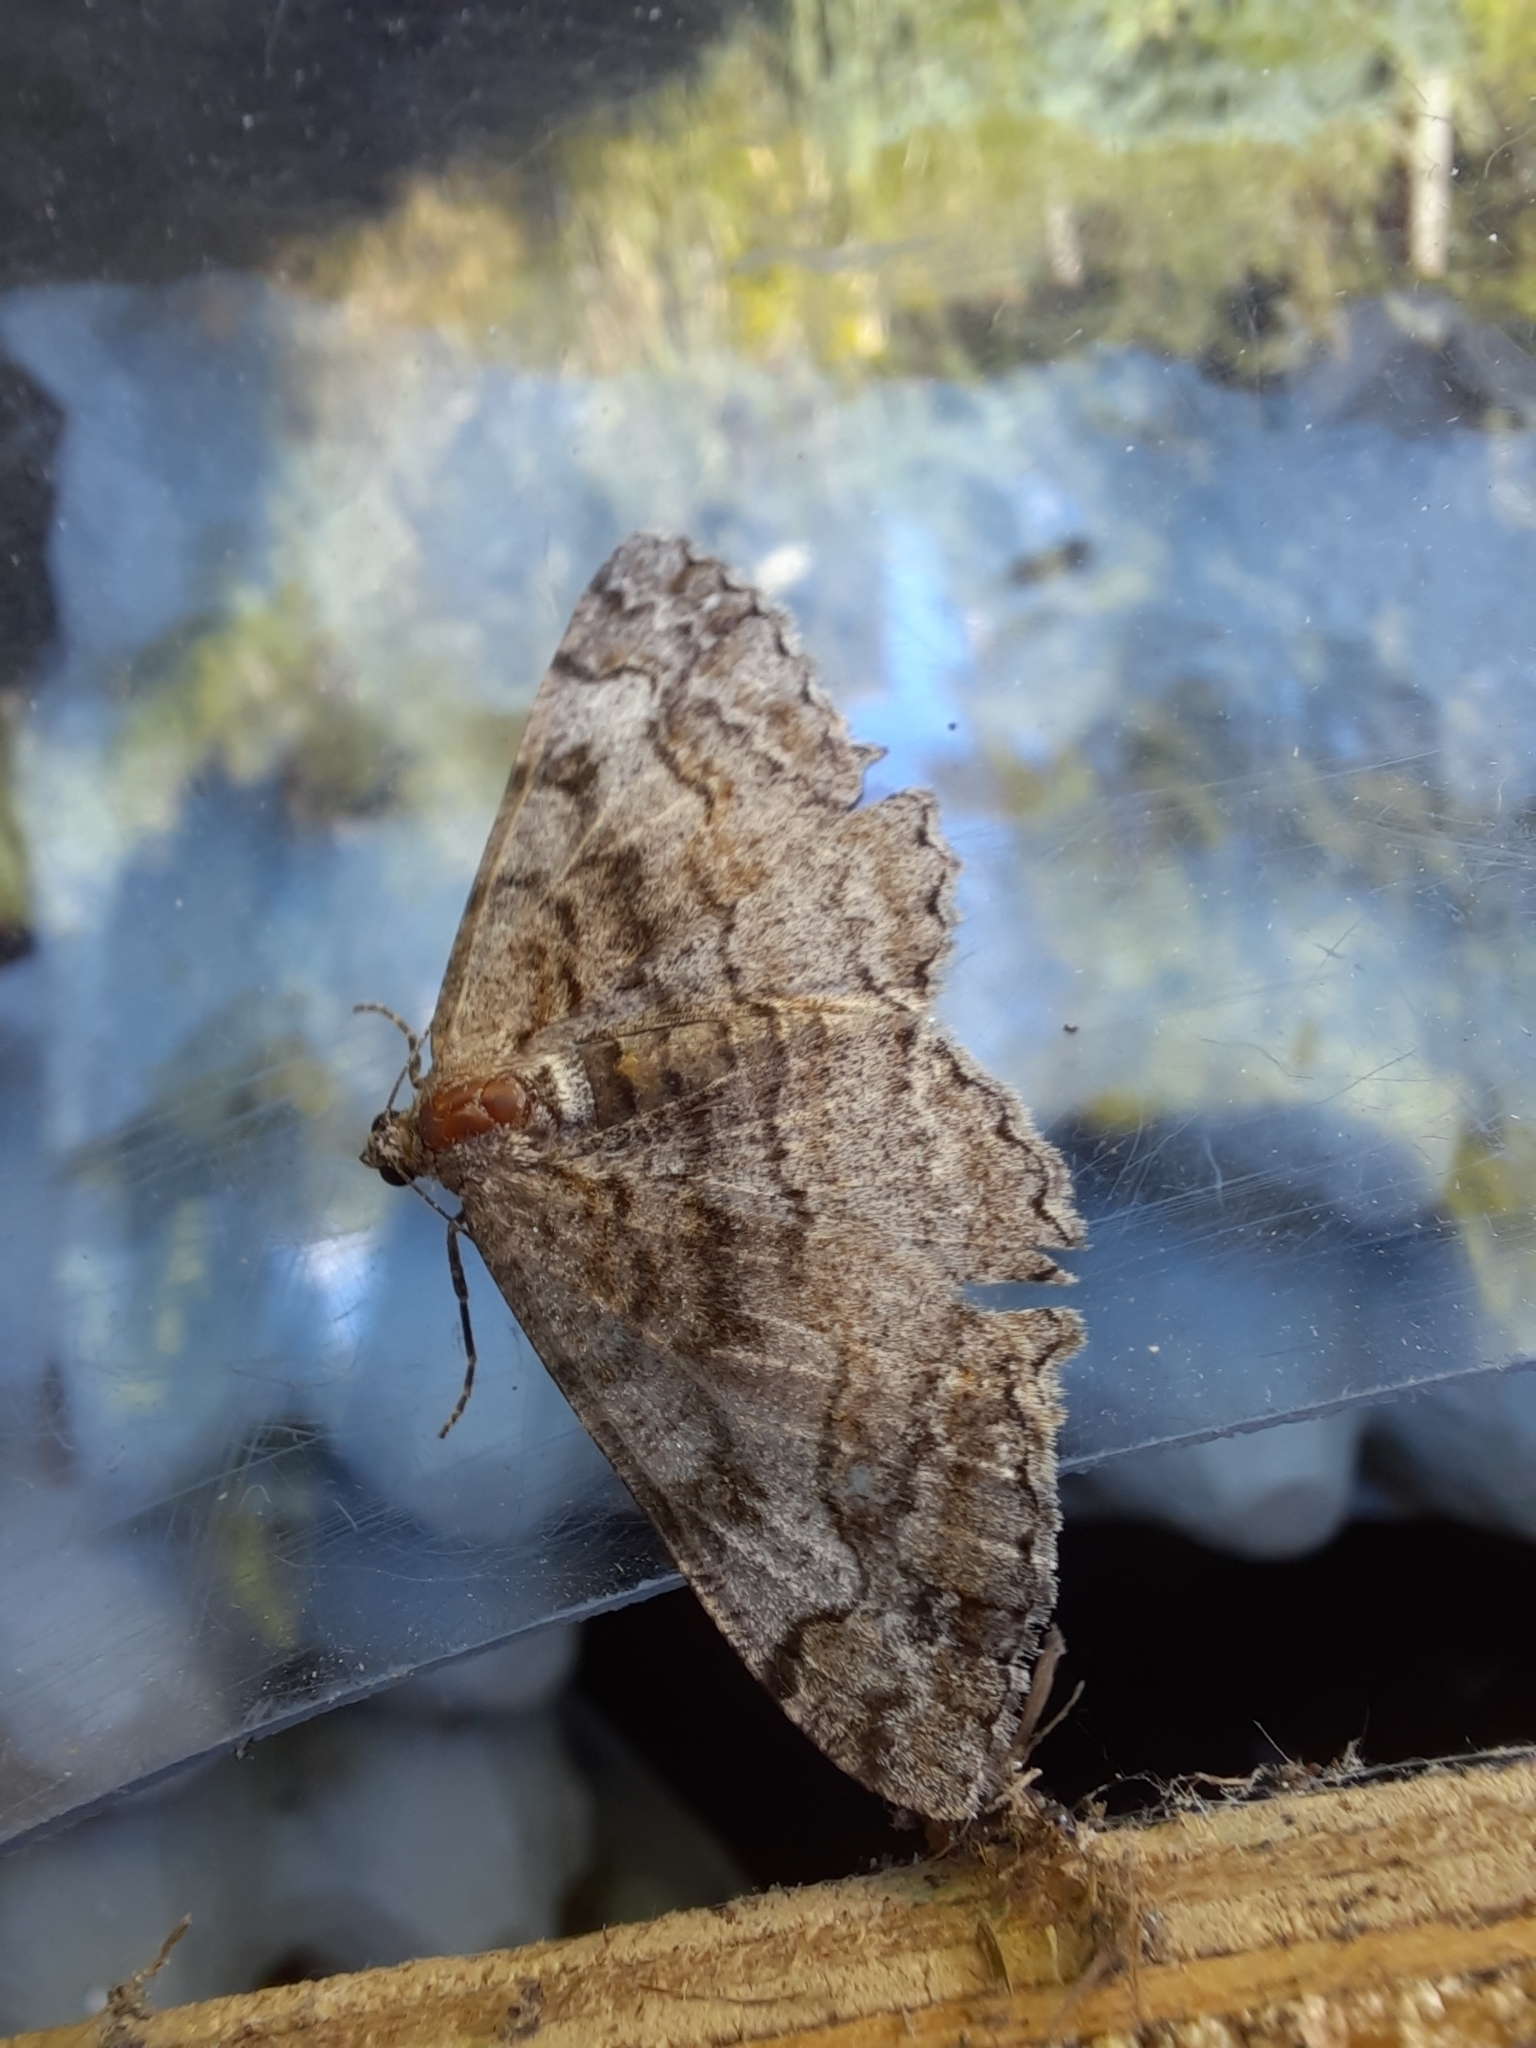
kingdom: Animalia
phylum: Arthropoda
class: Insecta
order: Lepidoptera
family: Geometridae
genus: Alcis
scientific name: Alcis repandata
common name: Mottled beauty
